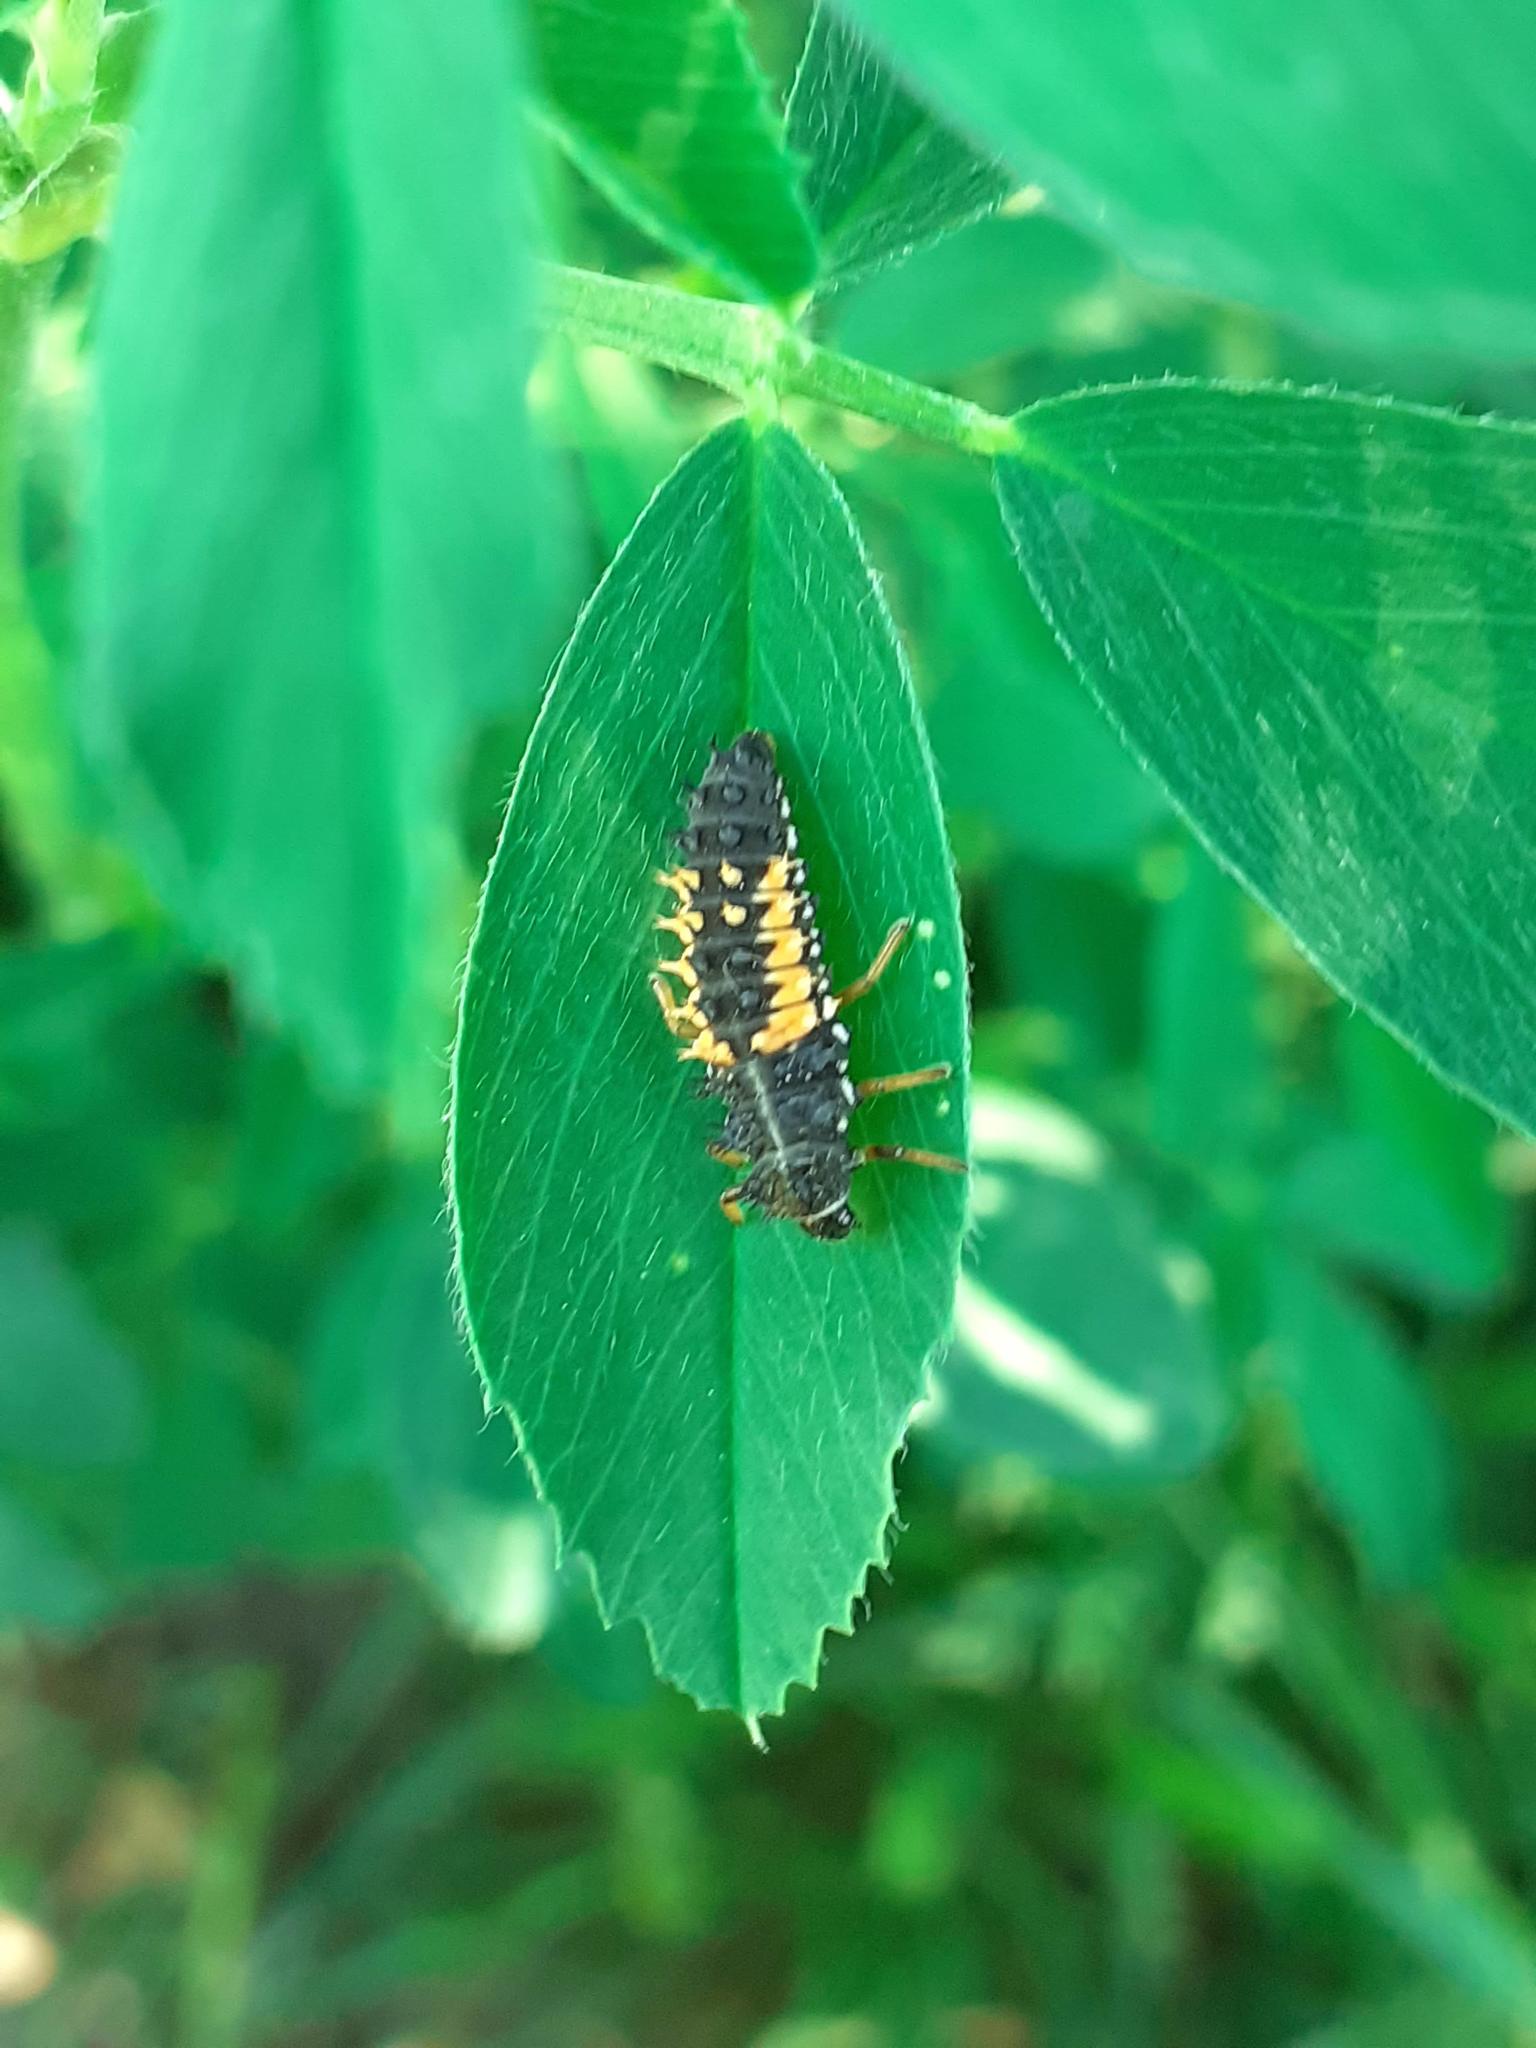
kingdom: Animalia
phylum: Arthropoda
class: Insecta
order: Coleoptera
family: Coccinellidae
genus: Harmonia
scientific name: Harmonia axyridis
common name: Harlequin ladybird
